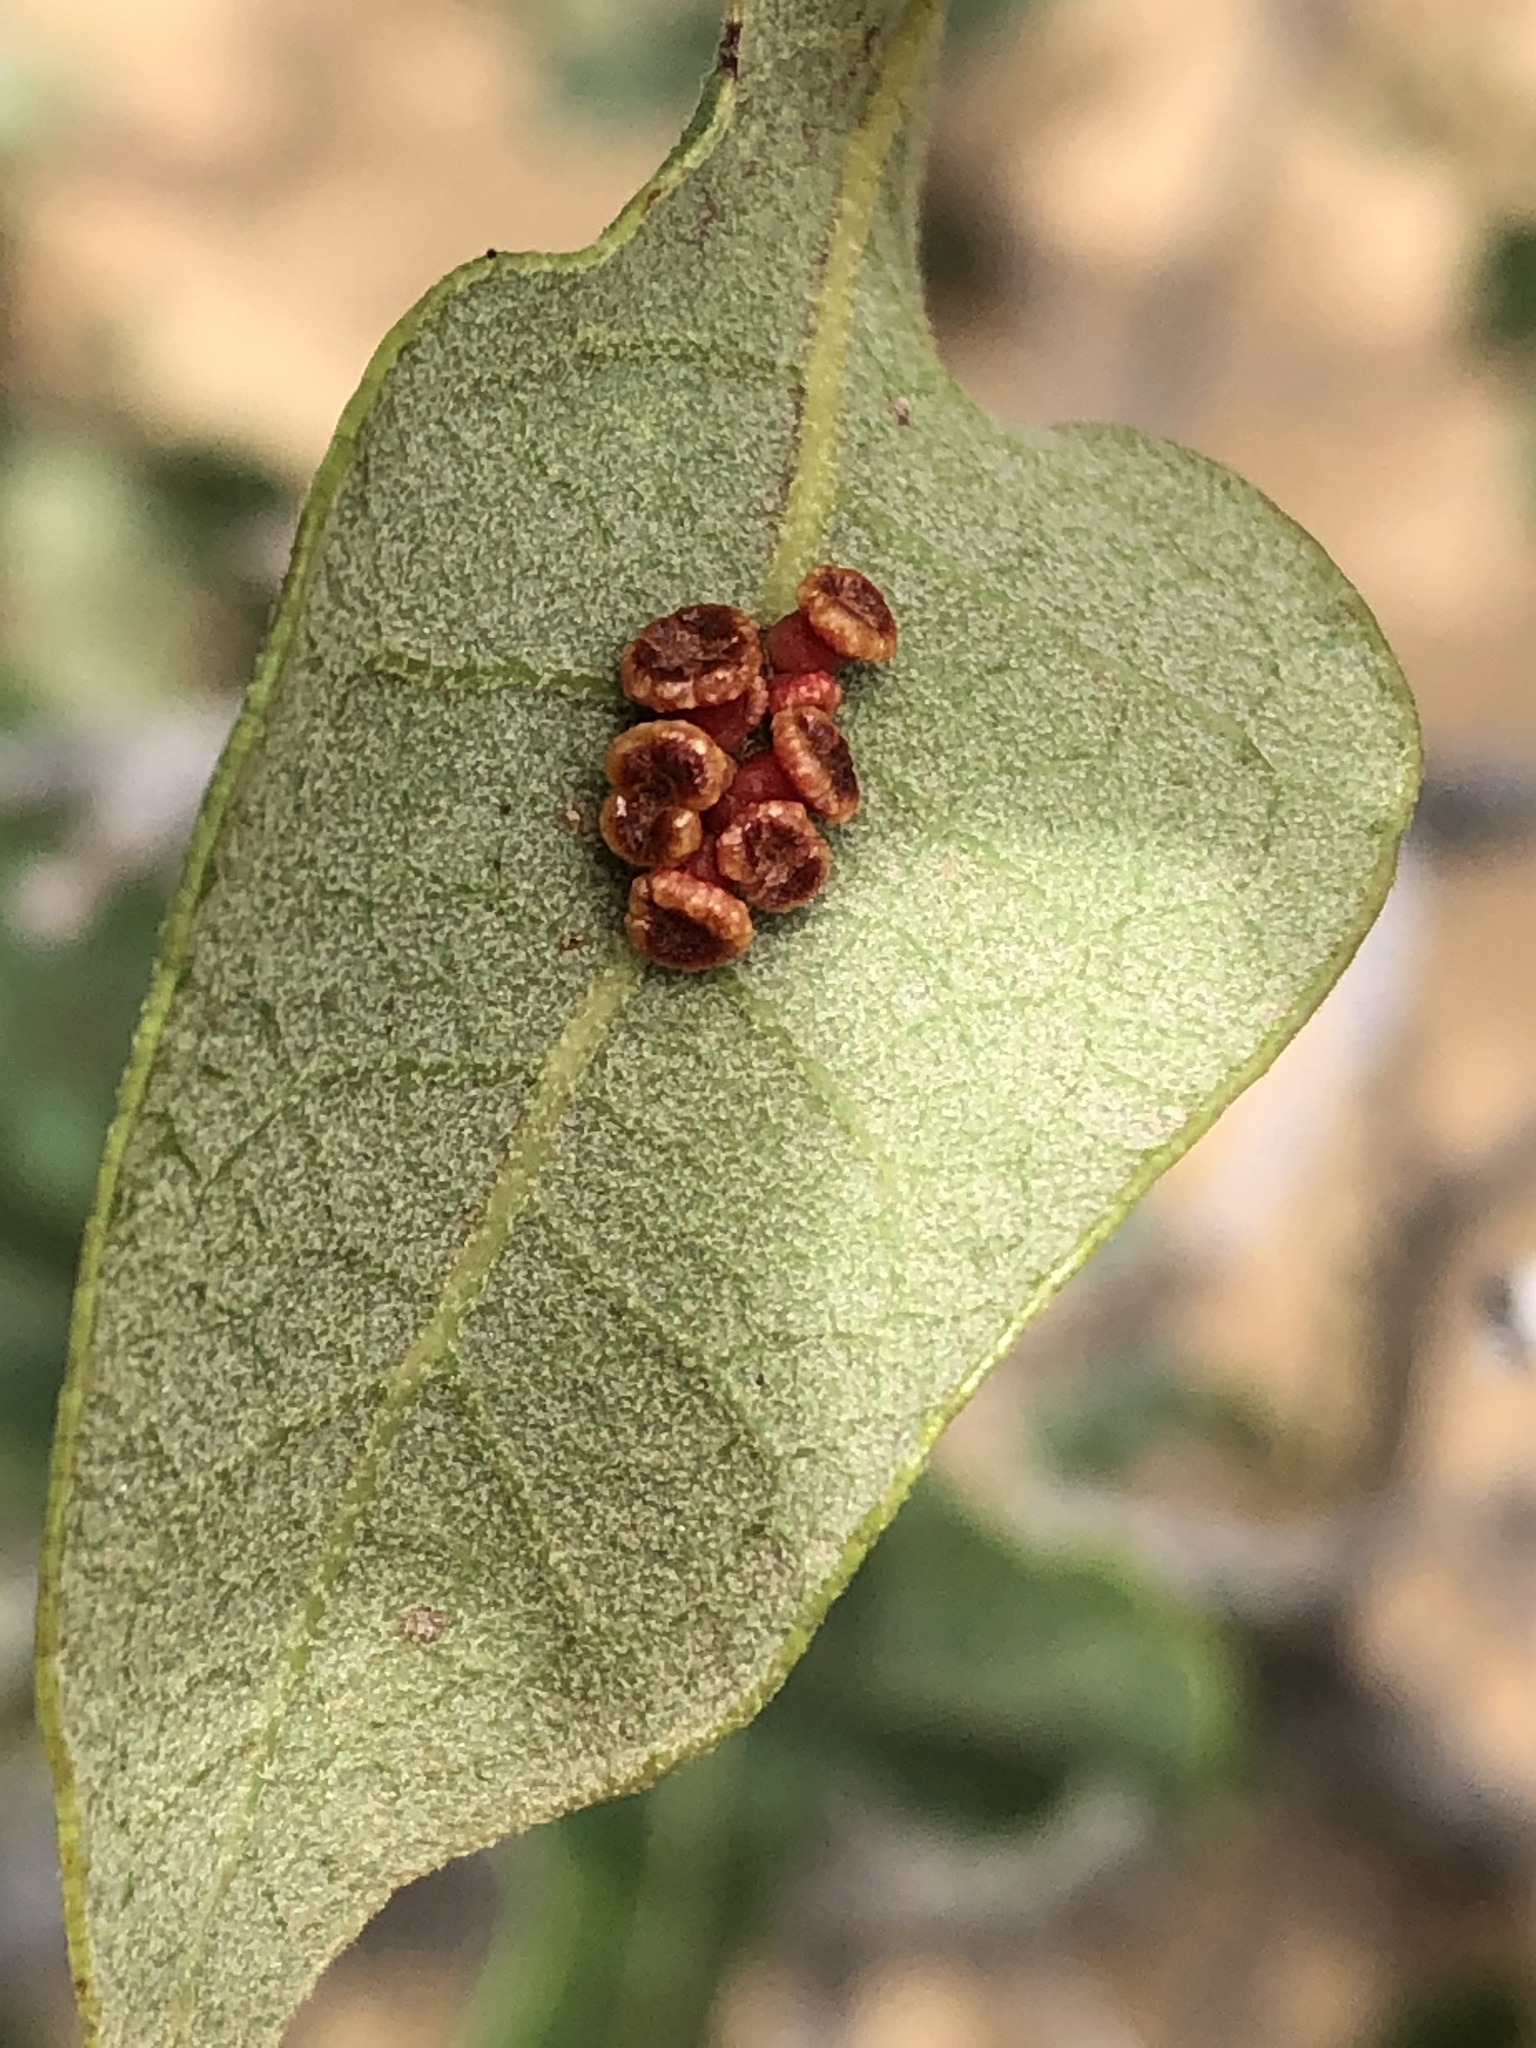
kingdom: Animalia
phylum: Arthropoda
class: Insecta
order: Hymenoptera
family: Cynipidae
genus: Callirhytis
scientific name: Callirhytis
